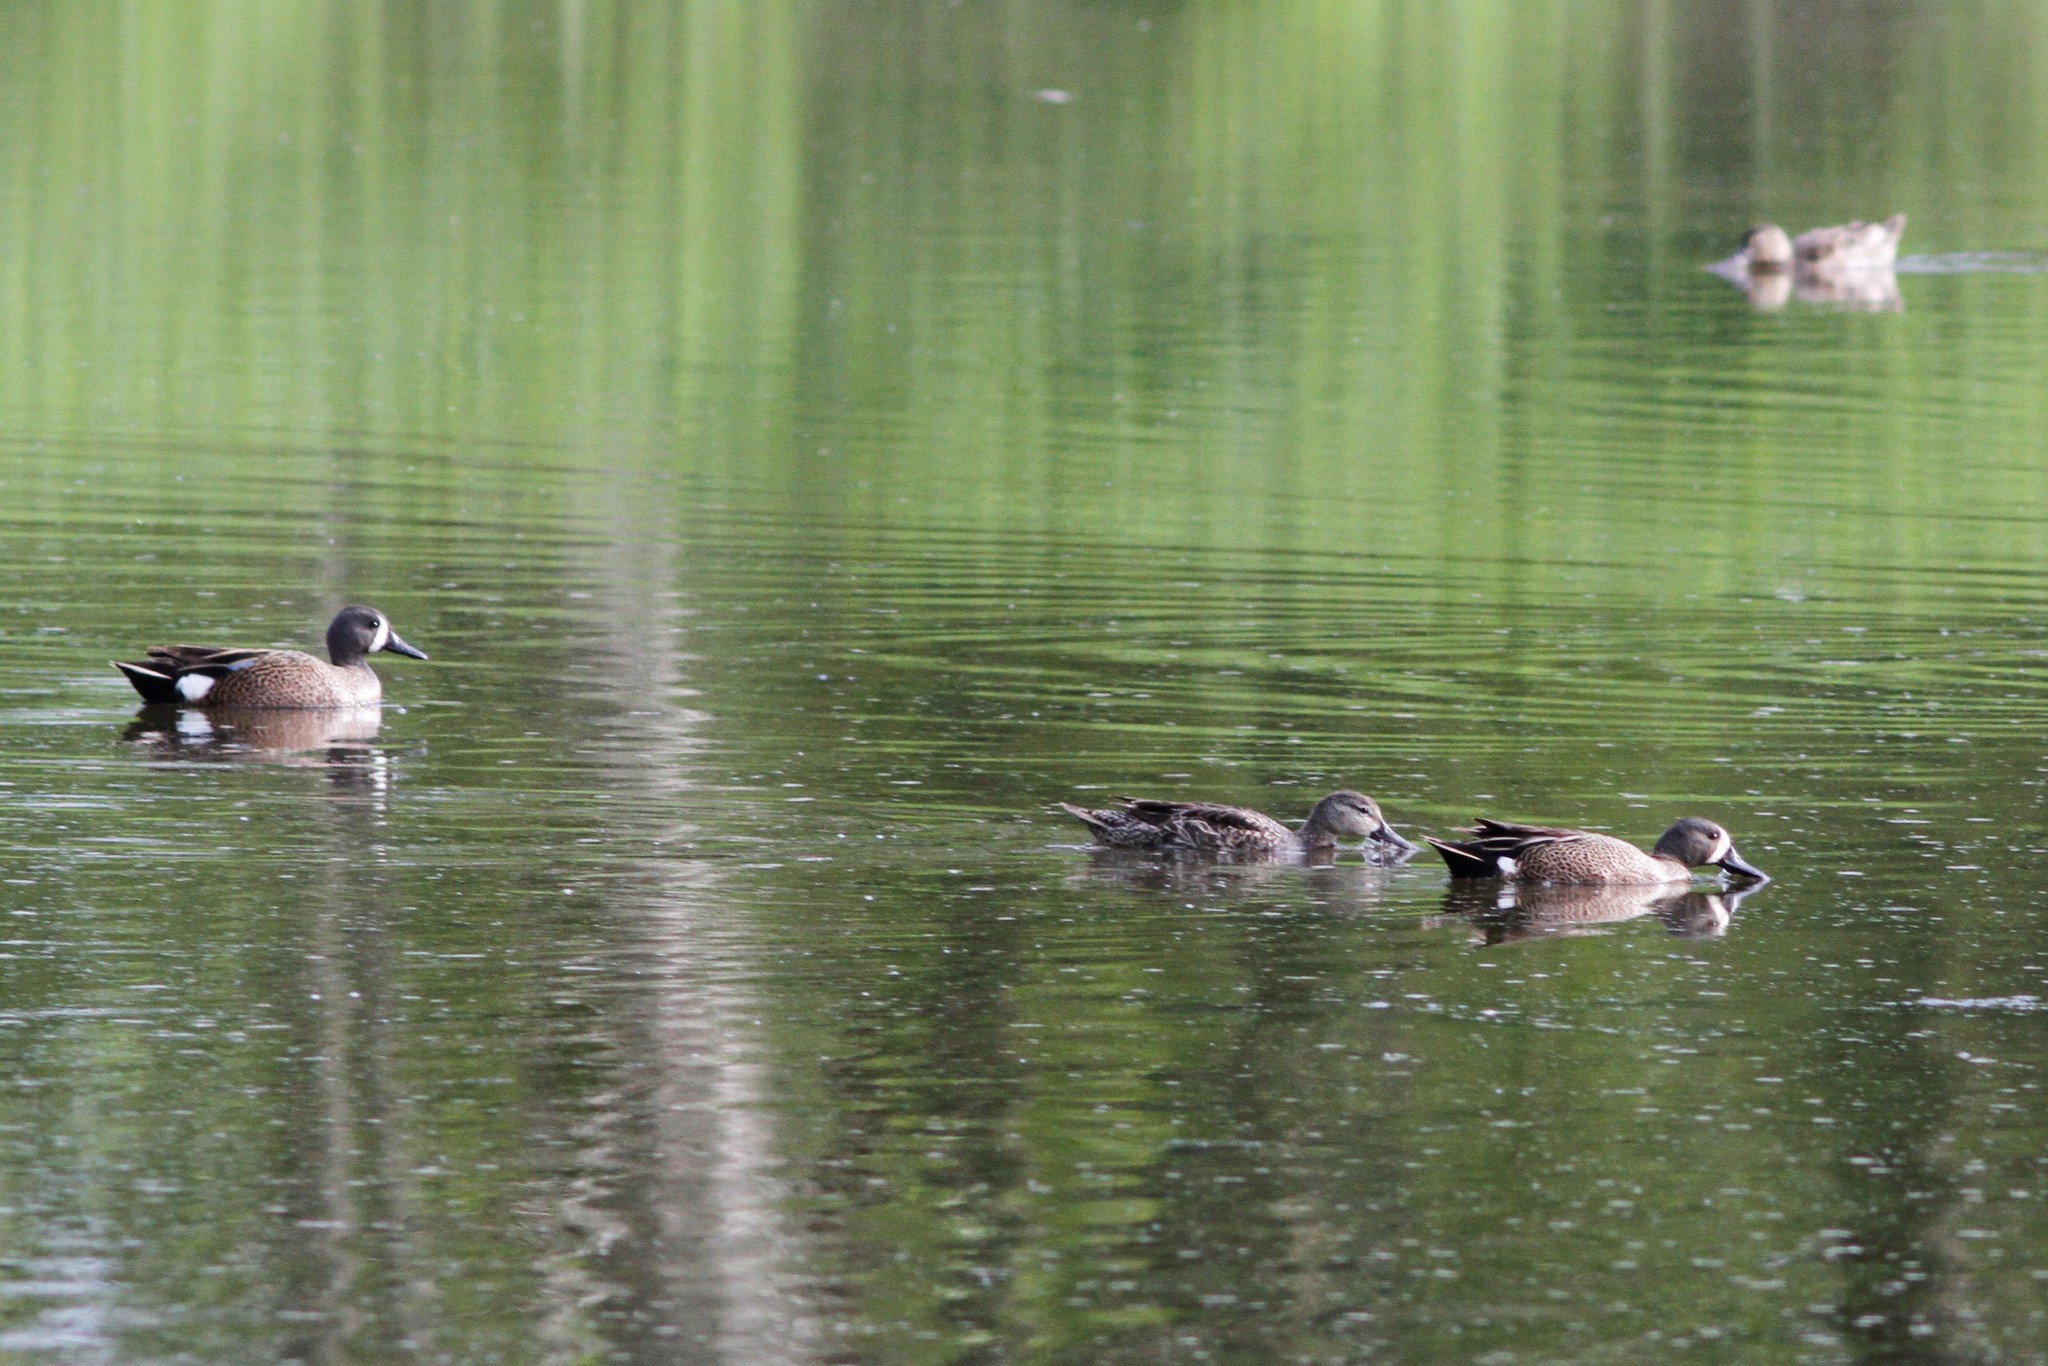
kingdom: Animalia
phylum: Chordata
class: Aves
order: Anseriformes
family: Anatidae
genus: Spatula
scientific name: Spatula discors
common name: Blue-winged teal
